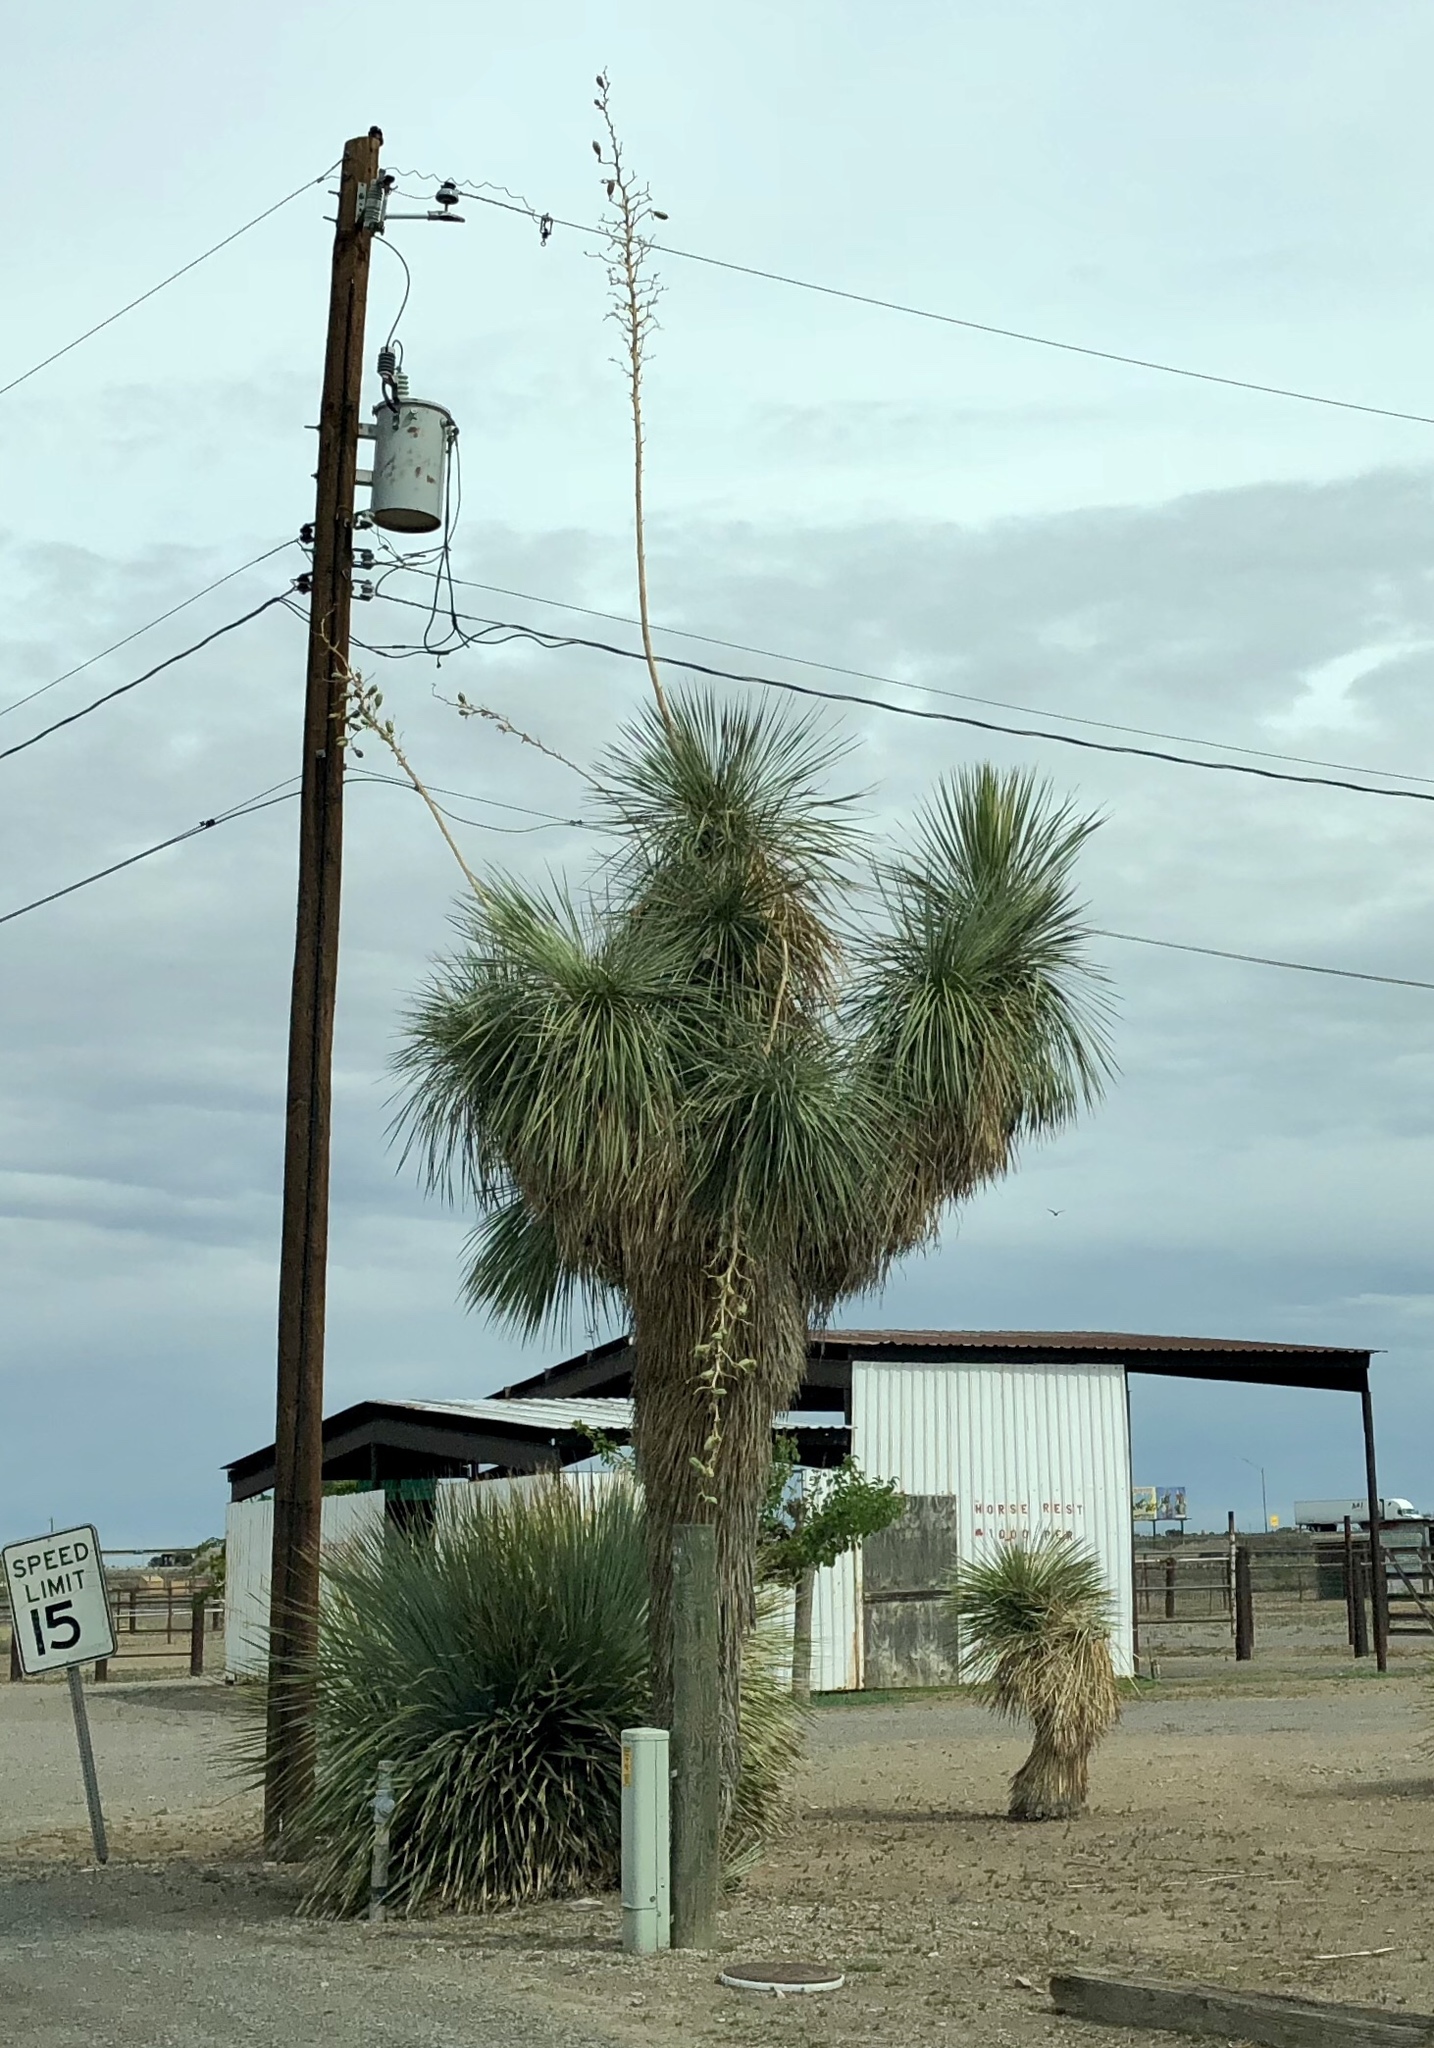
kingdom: Plantae
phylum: Tracheophyta
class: Liliopsida
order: Asparagales
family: Asparagaceae
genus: Yucca
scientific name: Yucca elata
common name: Palmella
